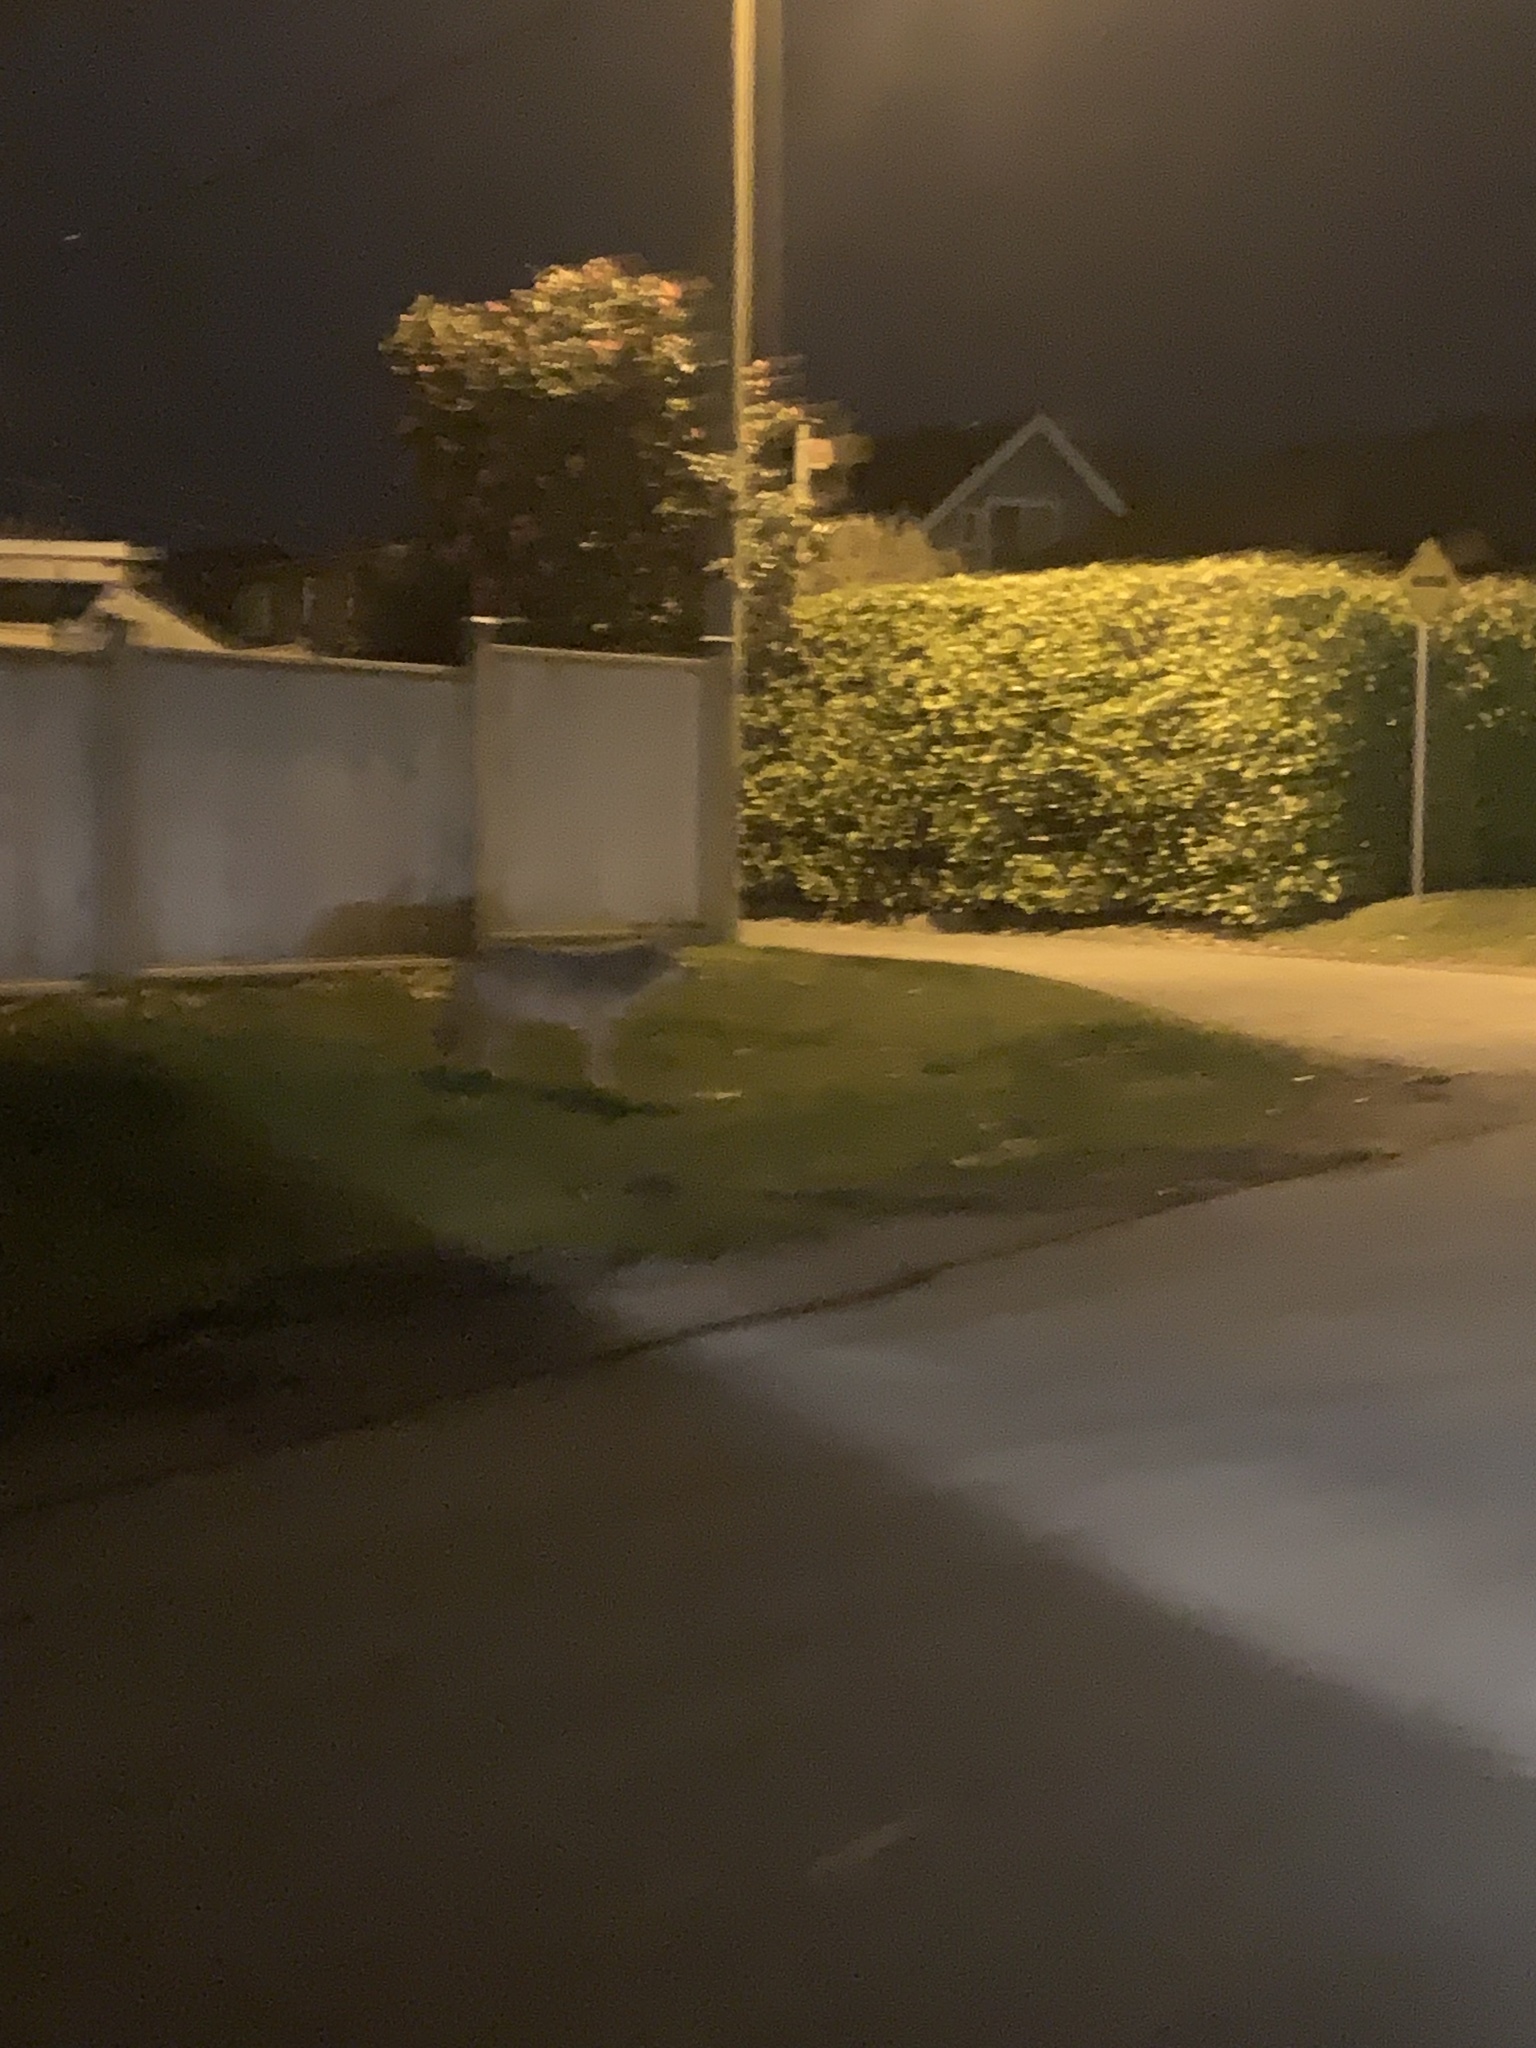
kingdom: Animalia
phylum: Chordata
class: Mammalia
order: Carnivora
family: Canidae
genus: Canis
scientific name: Canis latrans
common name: Coyote
